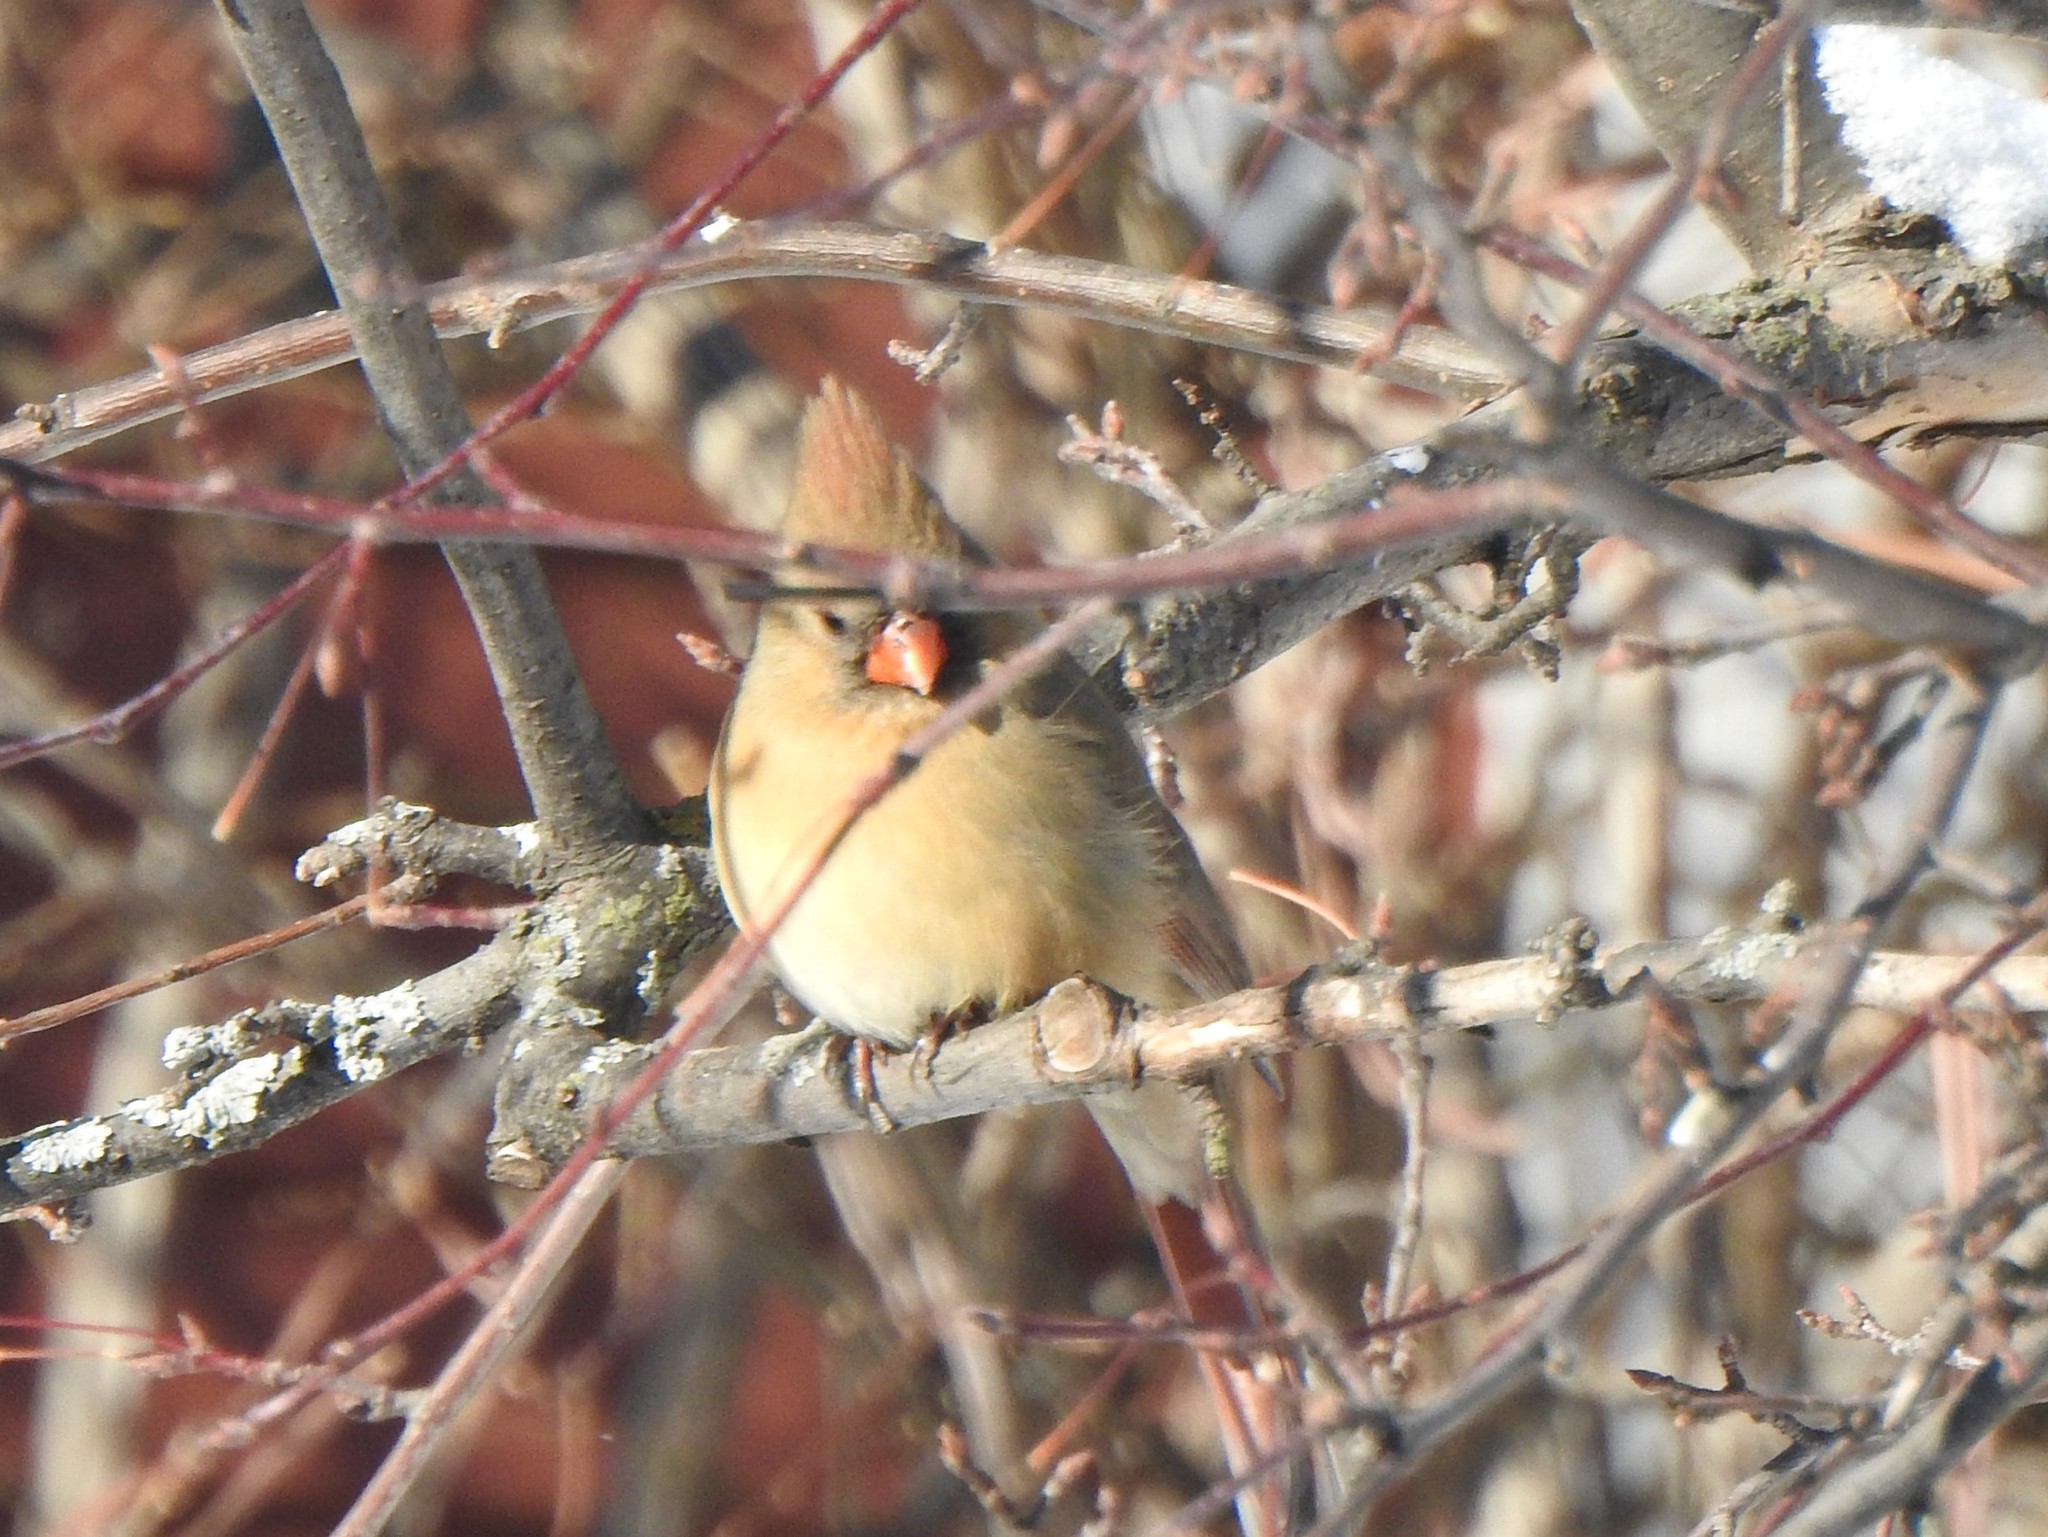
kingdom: Animalia
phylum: Chordata
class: Aves
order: Passeriformes
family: Cardinalidae
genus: Cardinalis
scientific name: Cardinalis cardinalis
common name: Northern cardinal
